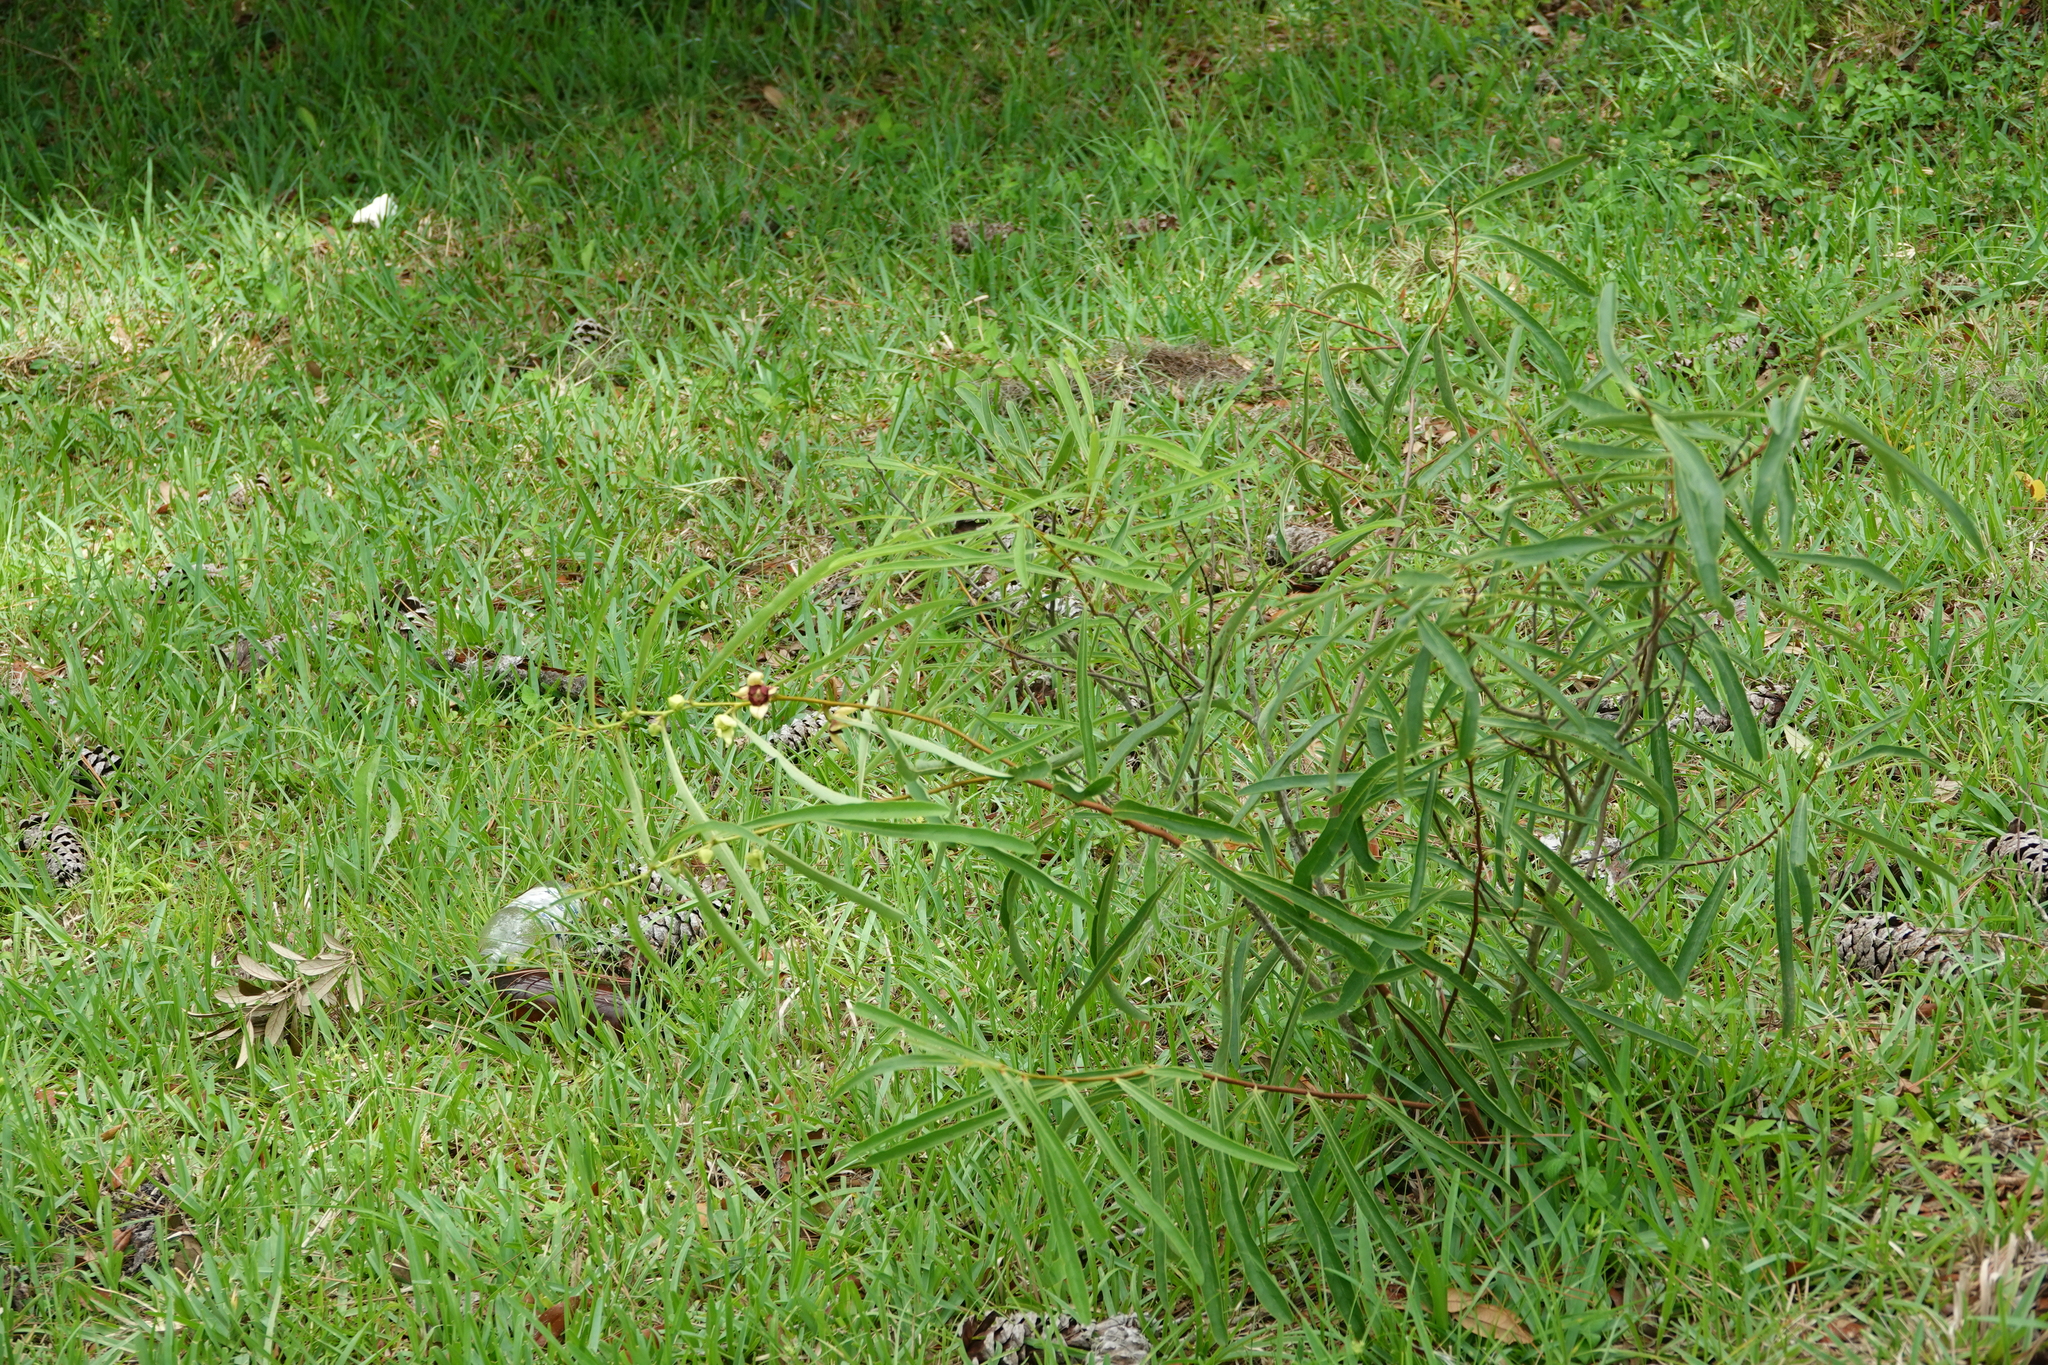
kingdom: Plantae
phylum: Tracheophyta
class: Magnoliopsida
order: Magnoliales
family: Annonaceae
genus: Asimina
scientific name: Asimina manasota
